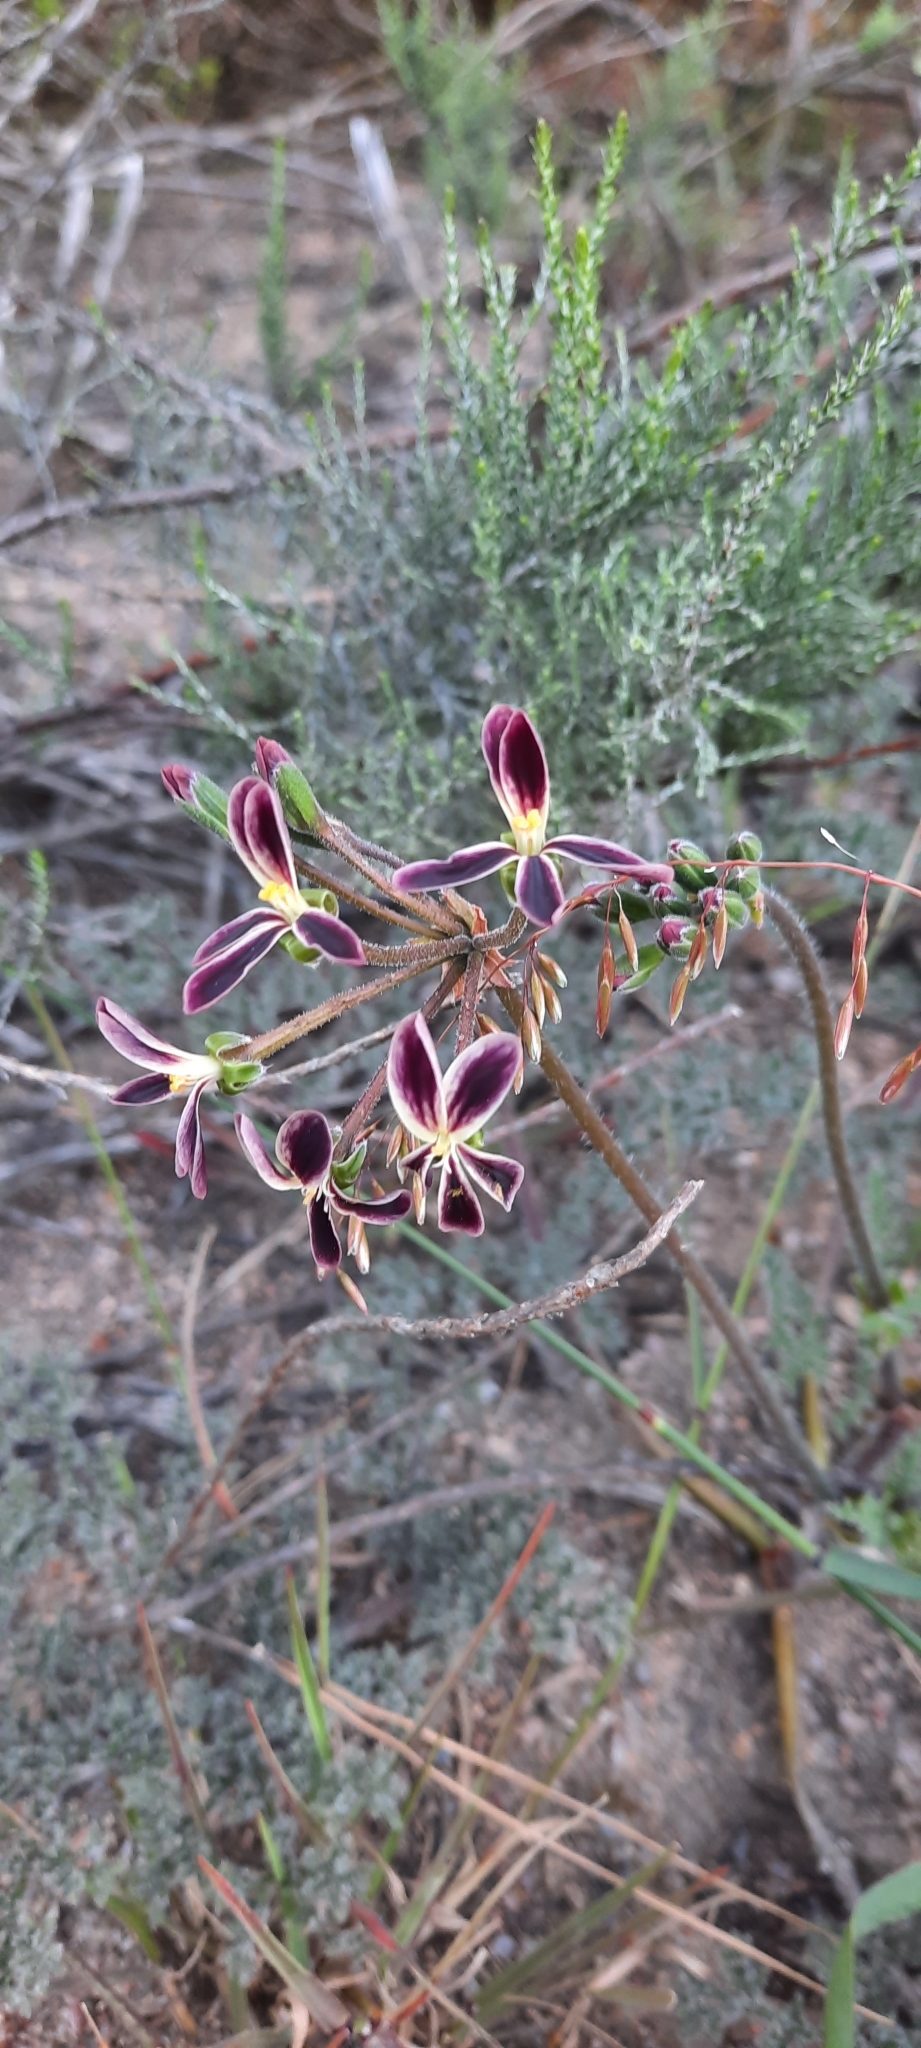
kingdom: Plantae
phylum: Tracheophyta
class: Magnoliopsida
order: Geraniales
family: Geraniaceae
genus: Pelargonium
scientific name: Pelargonium triste
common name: Night-scent pelargonium
